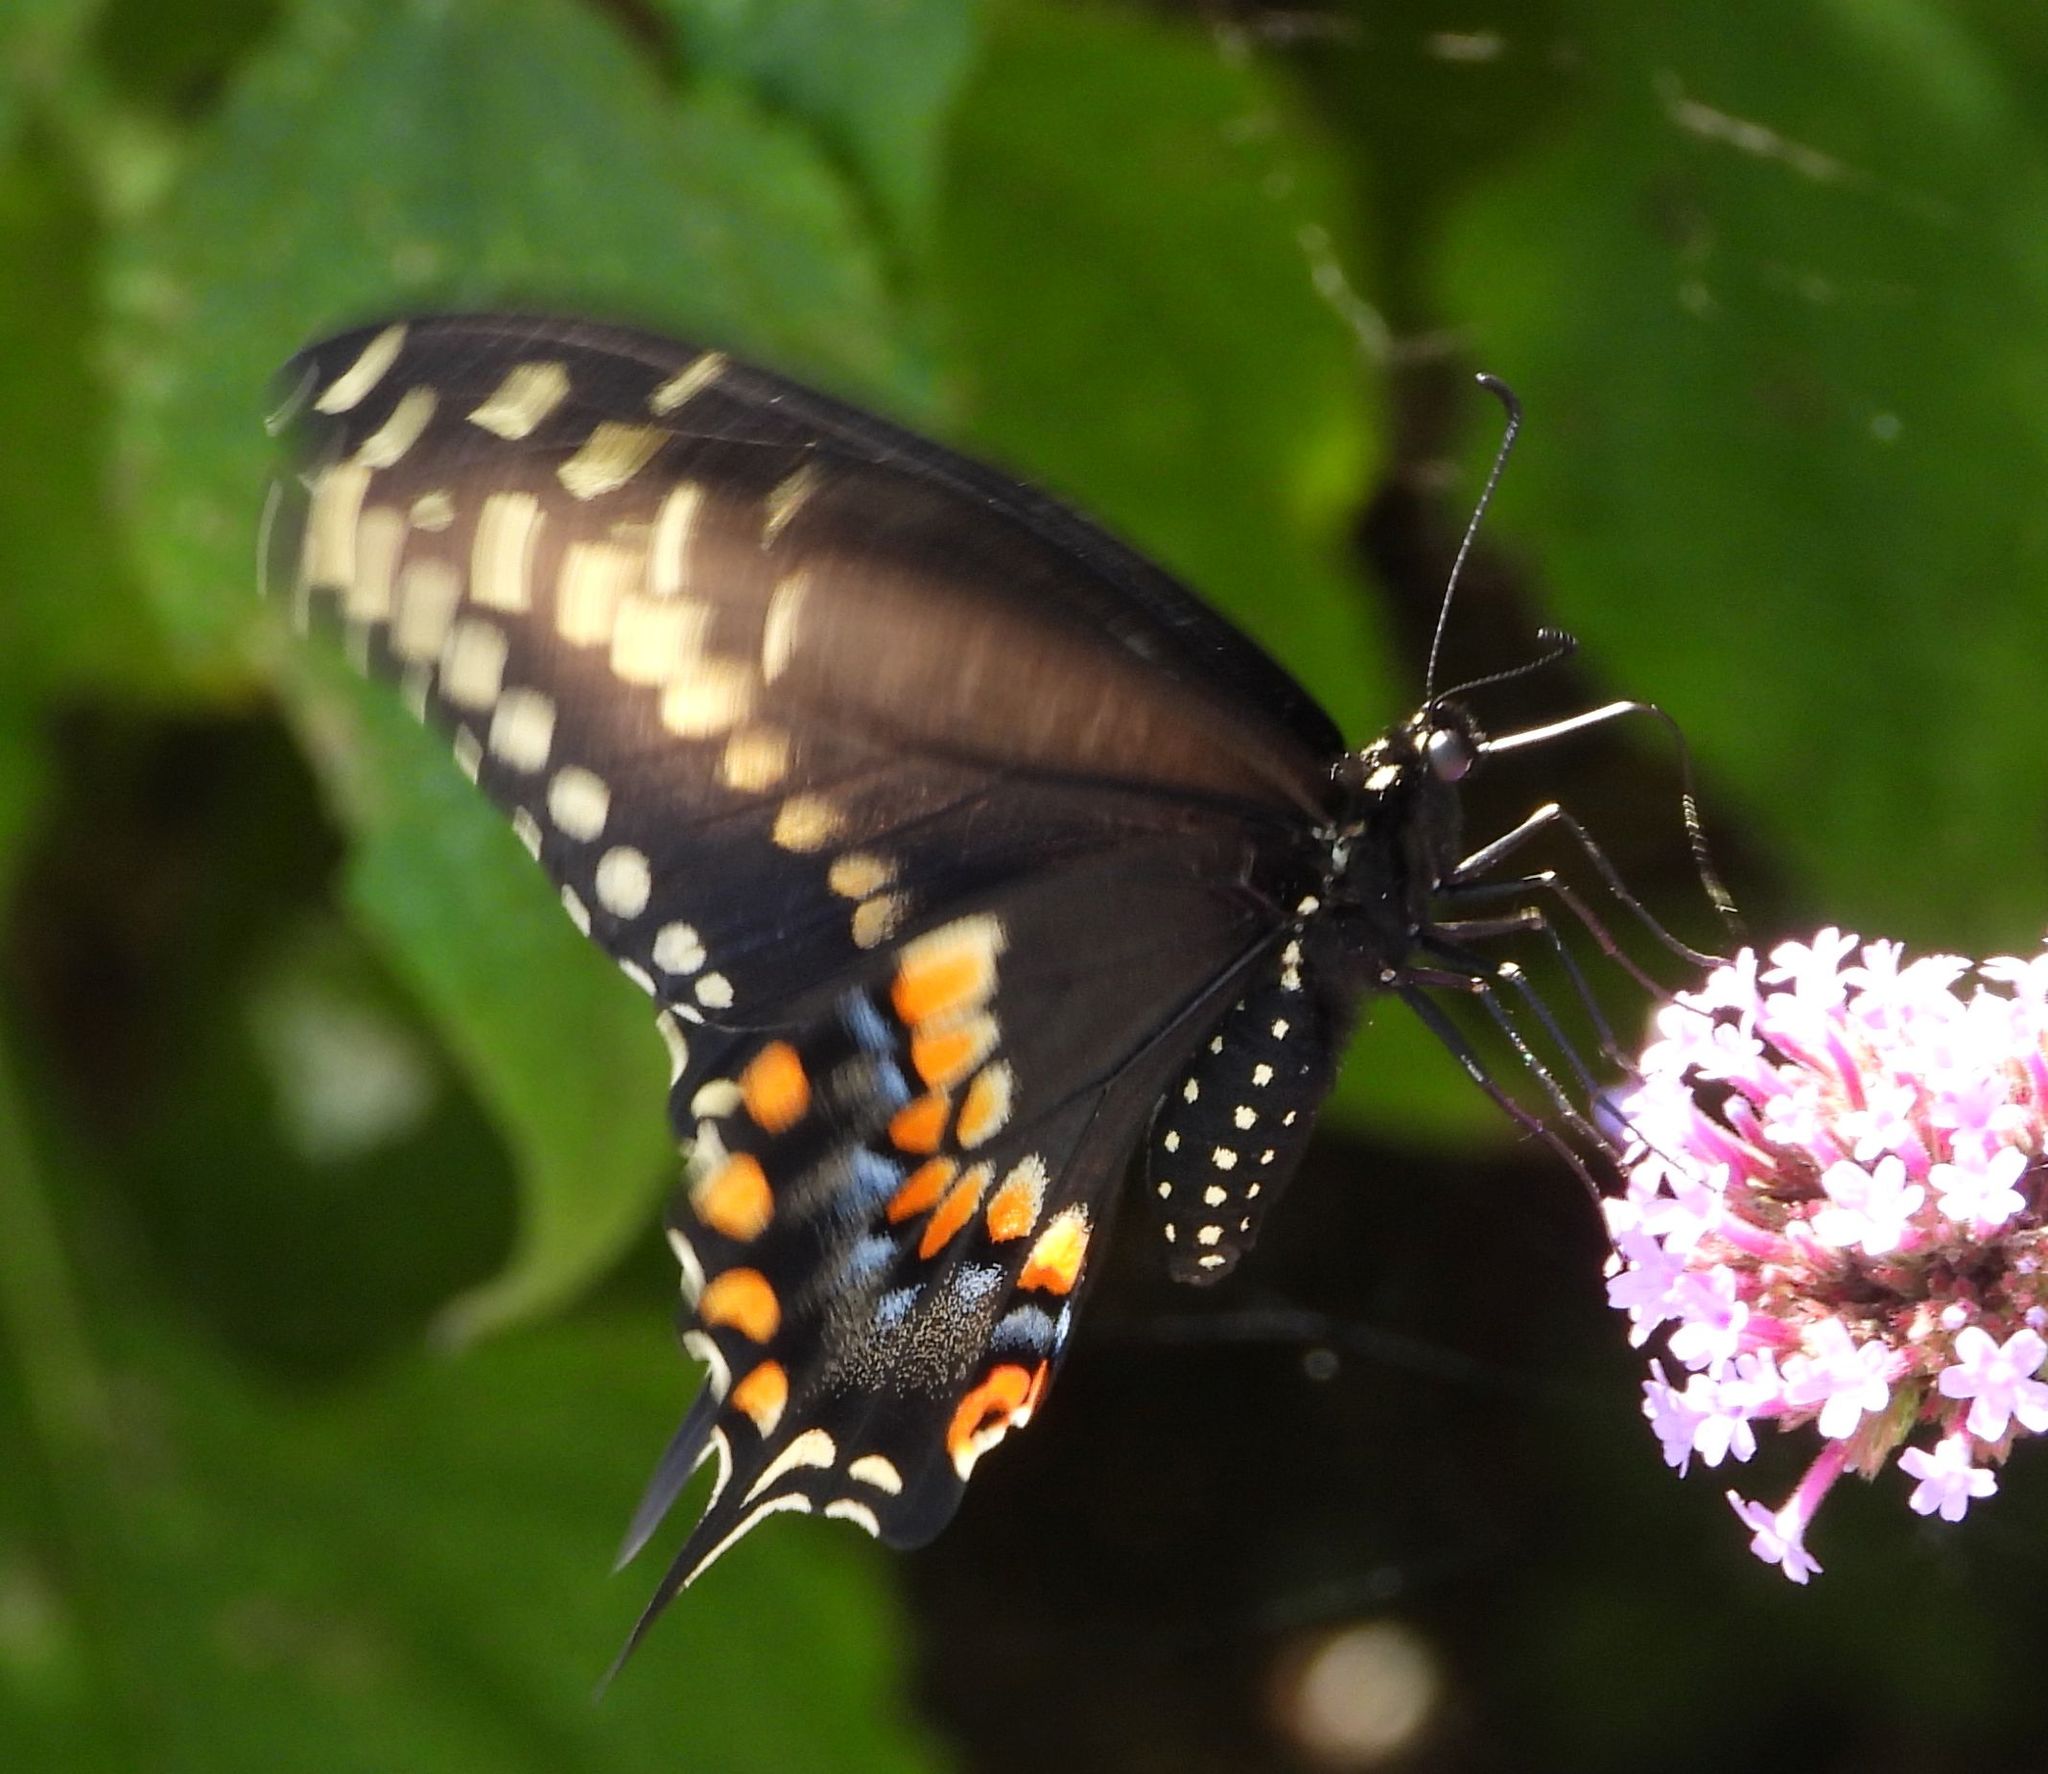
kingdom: Animalia
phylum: Arthropoda
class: Insecta
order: Lepidoptera
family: Papilionidae
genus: Papilio
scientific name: Papilio polyxenes
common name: Black swallowtail
